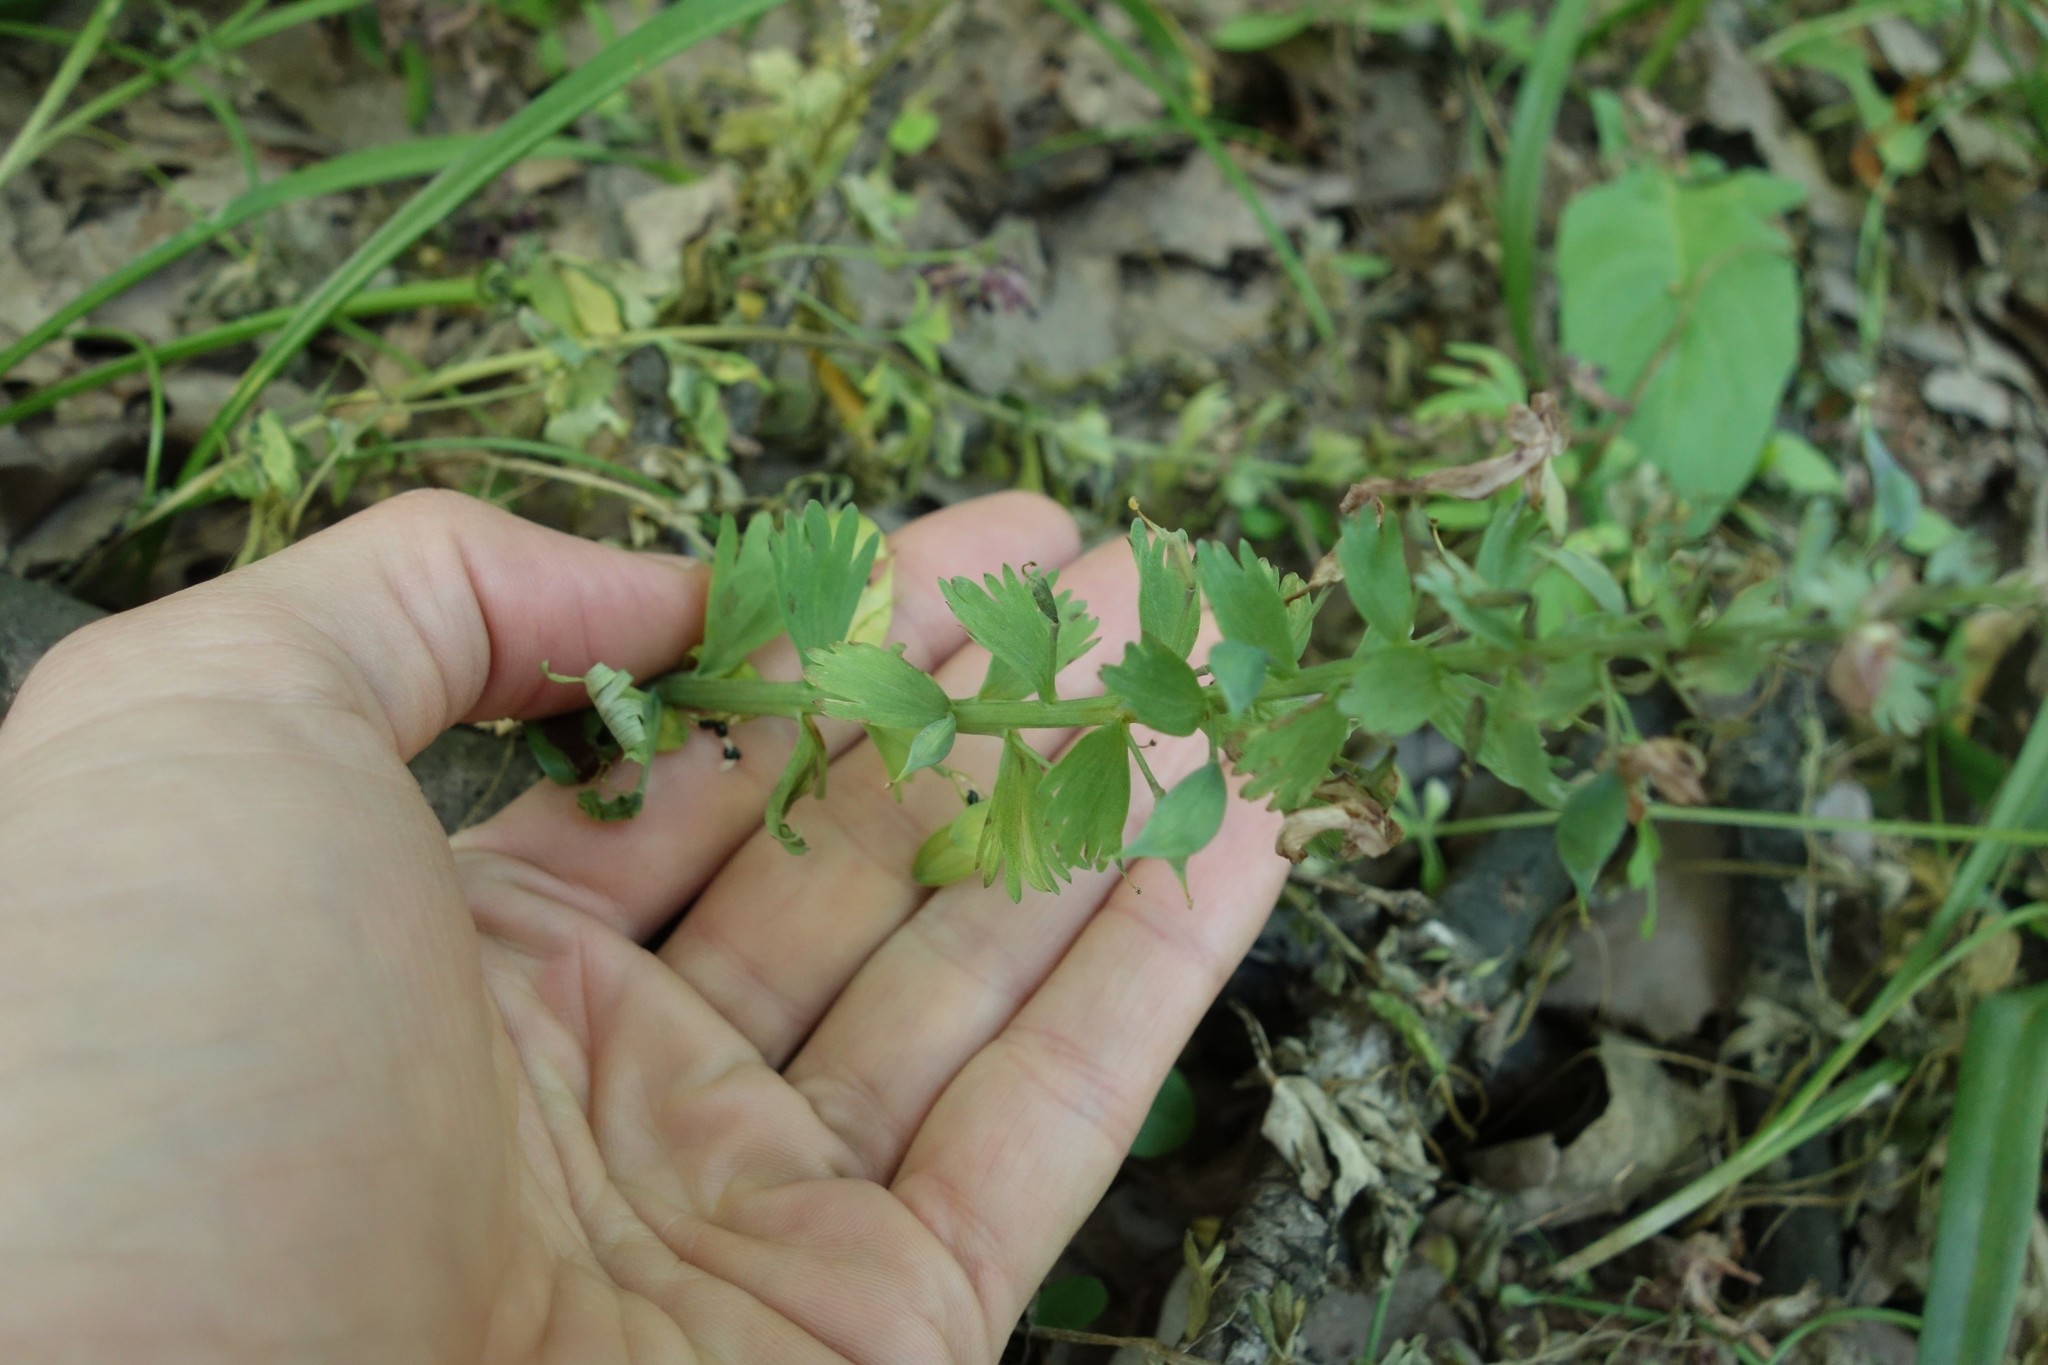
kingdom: Plantae
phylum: Tracheophyta
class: Magnoliopsida
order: Ranunculales
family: Papaveraceae
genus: Corydalis
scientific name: Corydalis solida
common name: Bird-in-a-bush
